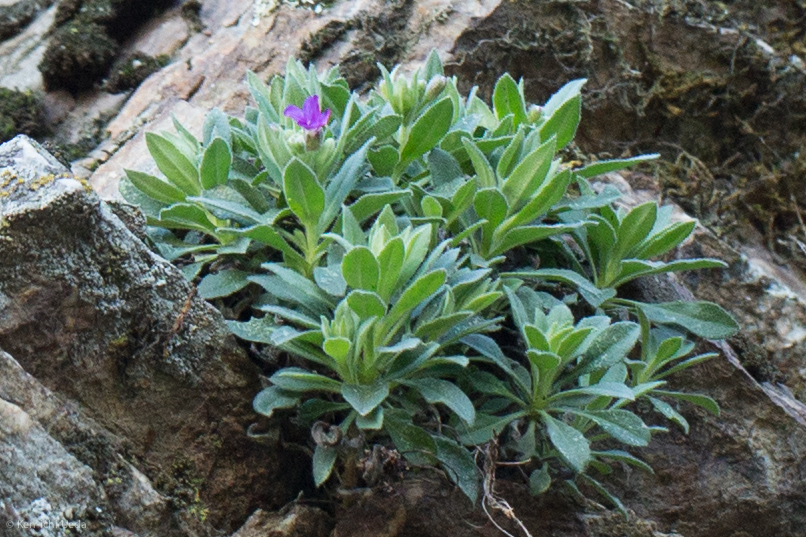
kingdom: Plantae
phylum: Tracheophyta
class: Magnoliopsida
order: Brassicales
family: Brassicaceae
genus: Boechera
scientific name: Boechera breweri
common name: Brewer's rockcress
